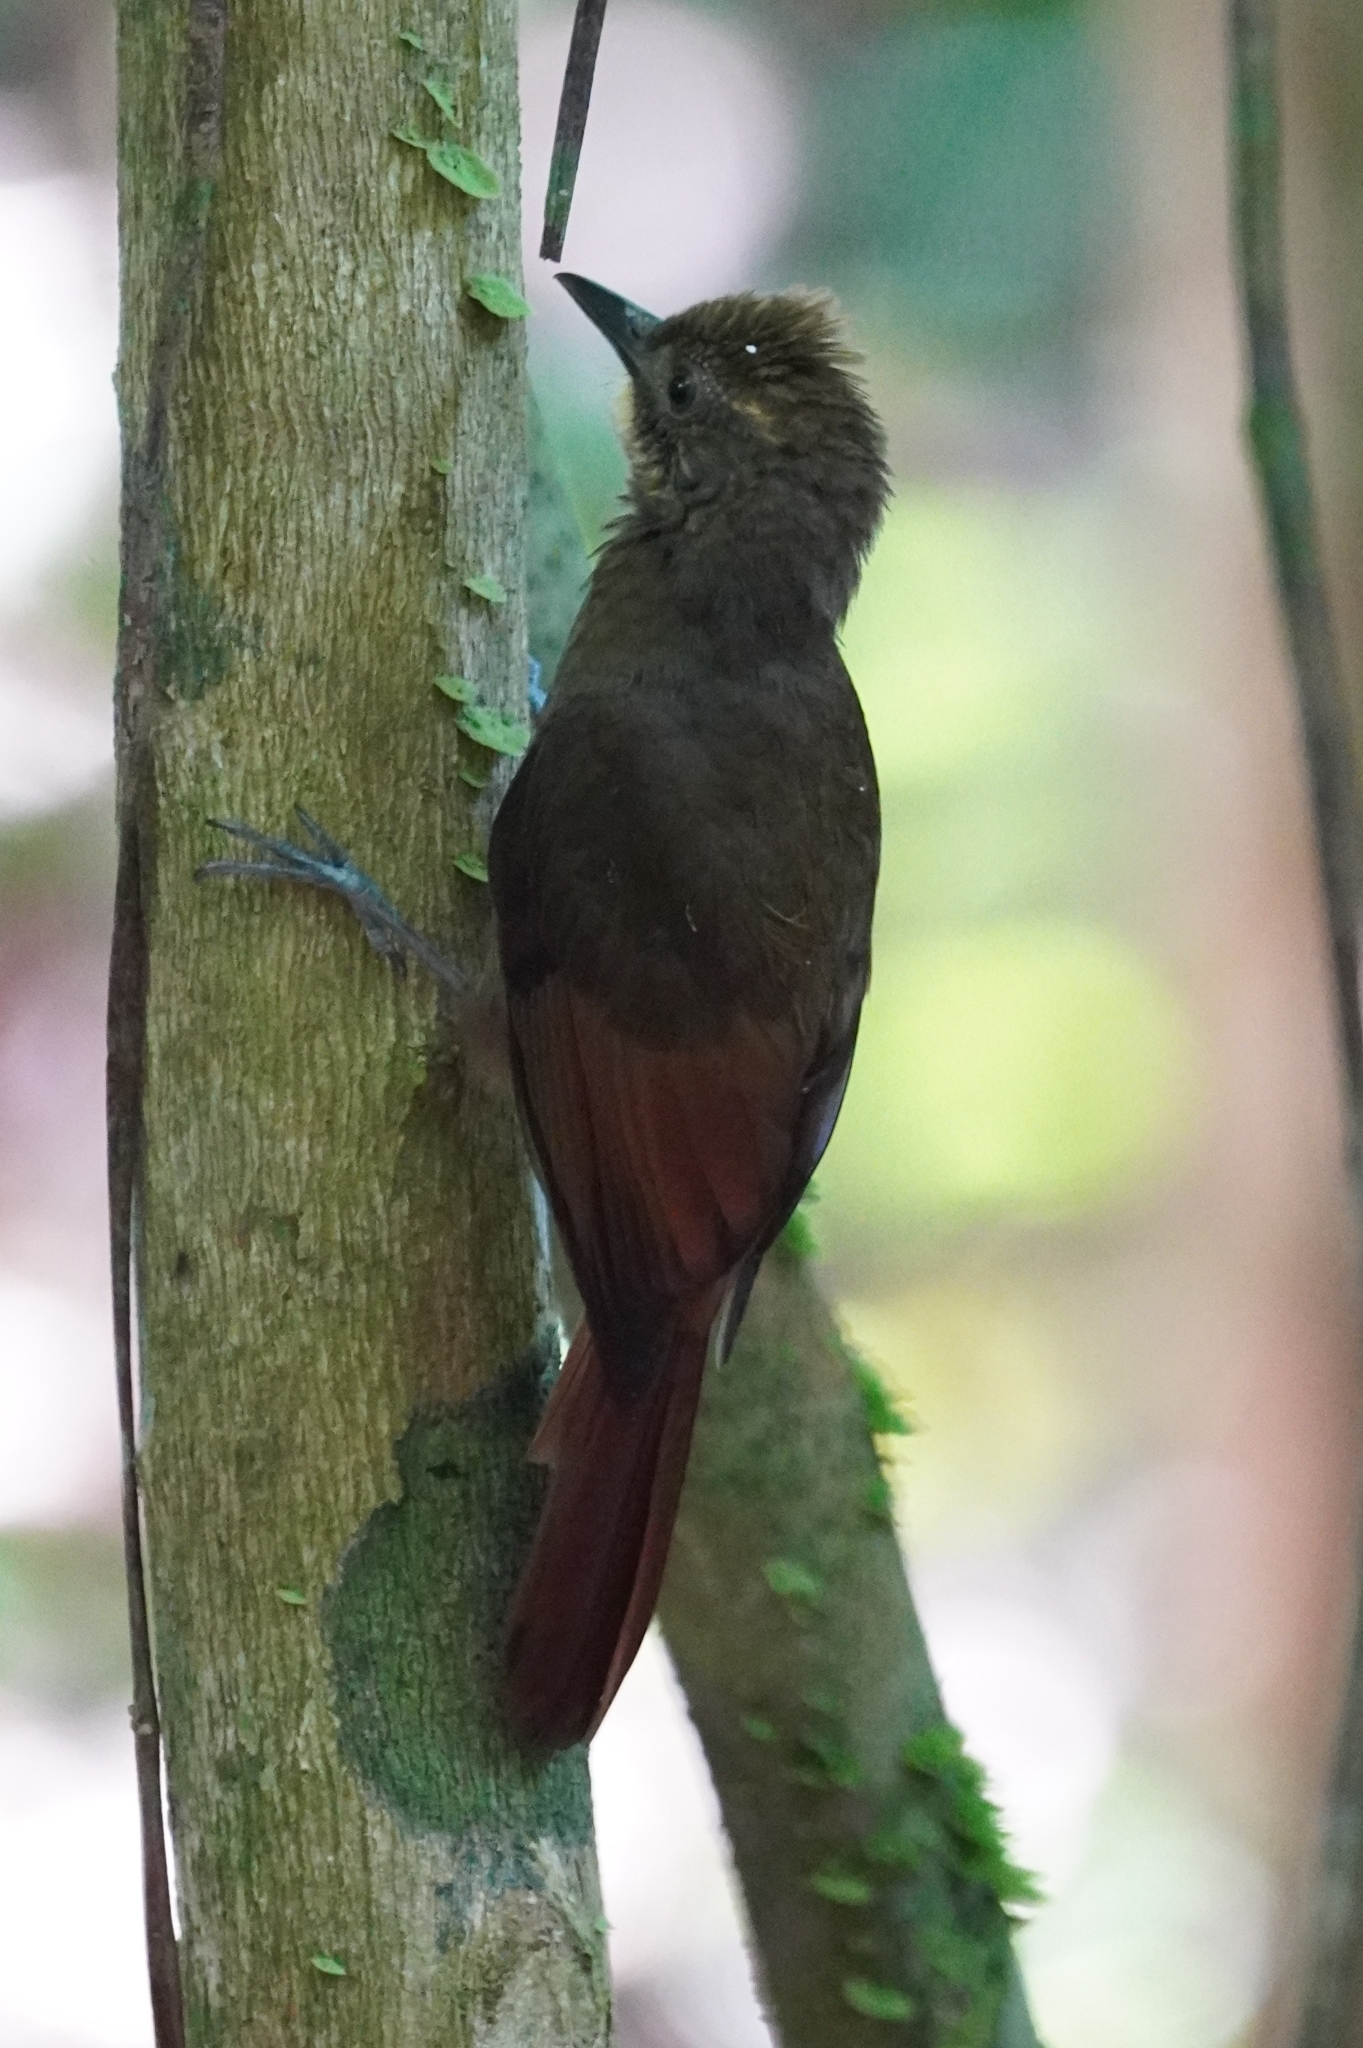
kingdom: Animalia
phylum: Chordata
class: Aves
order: Passeriformes
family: Furnariidae
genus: Dendrocincla
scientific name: Dendrocincla anabatina
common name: Tawny-winged woodcreeper
